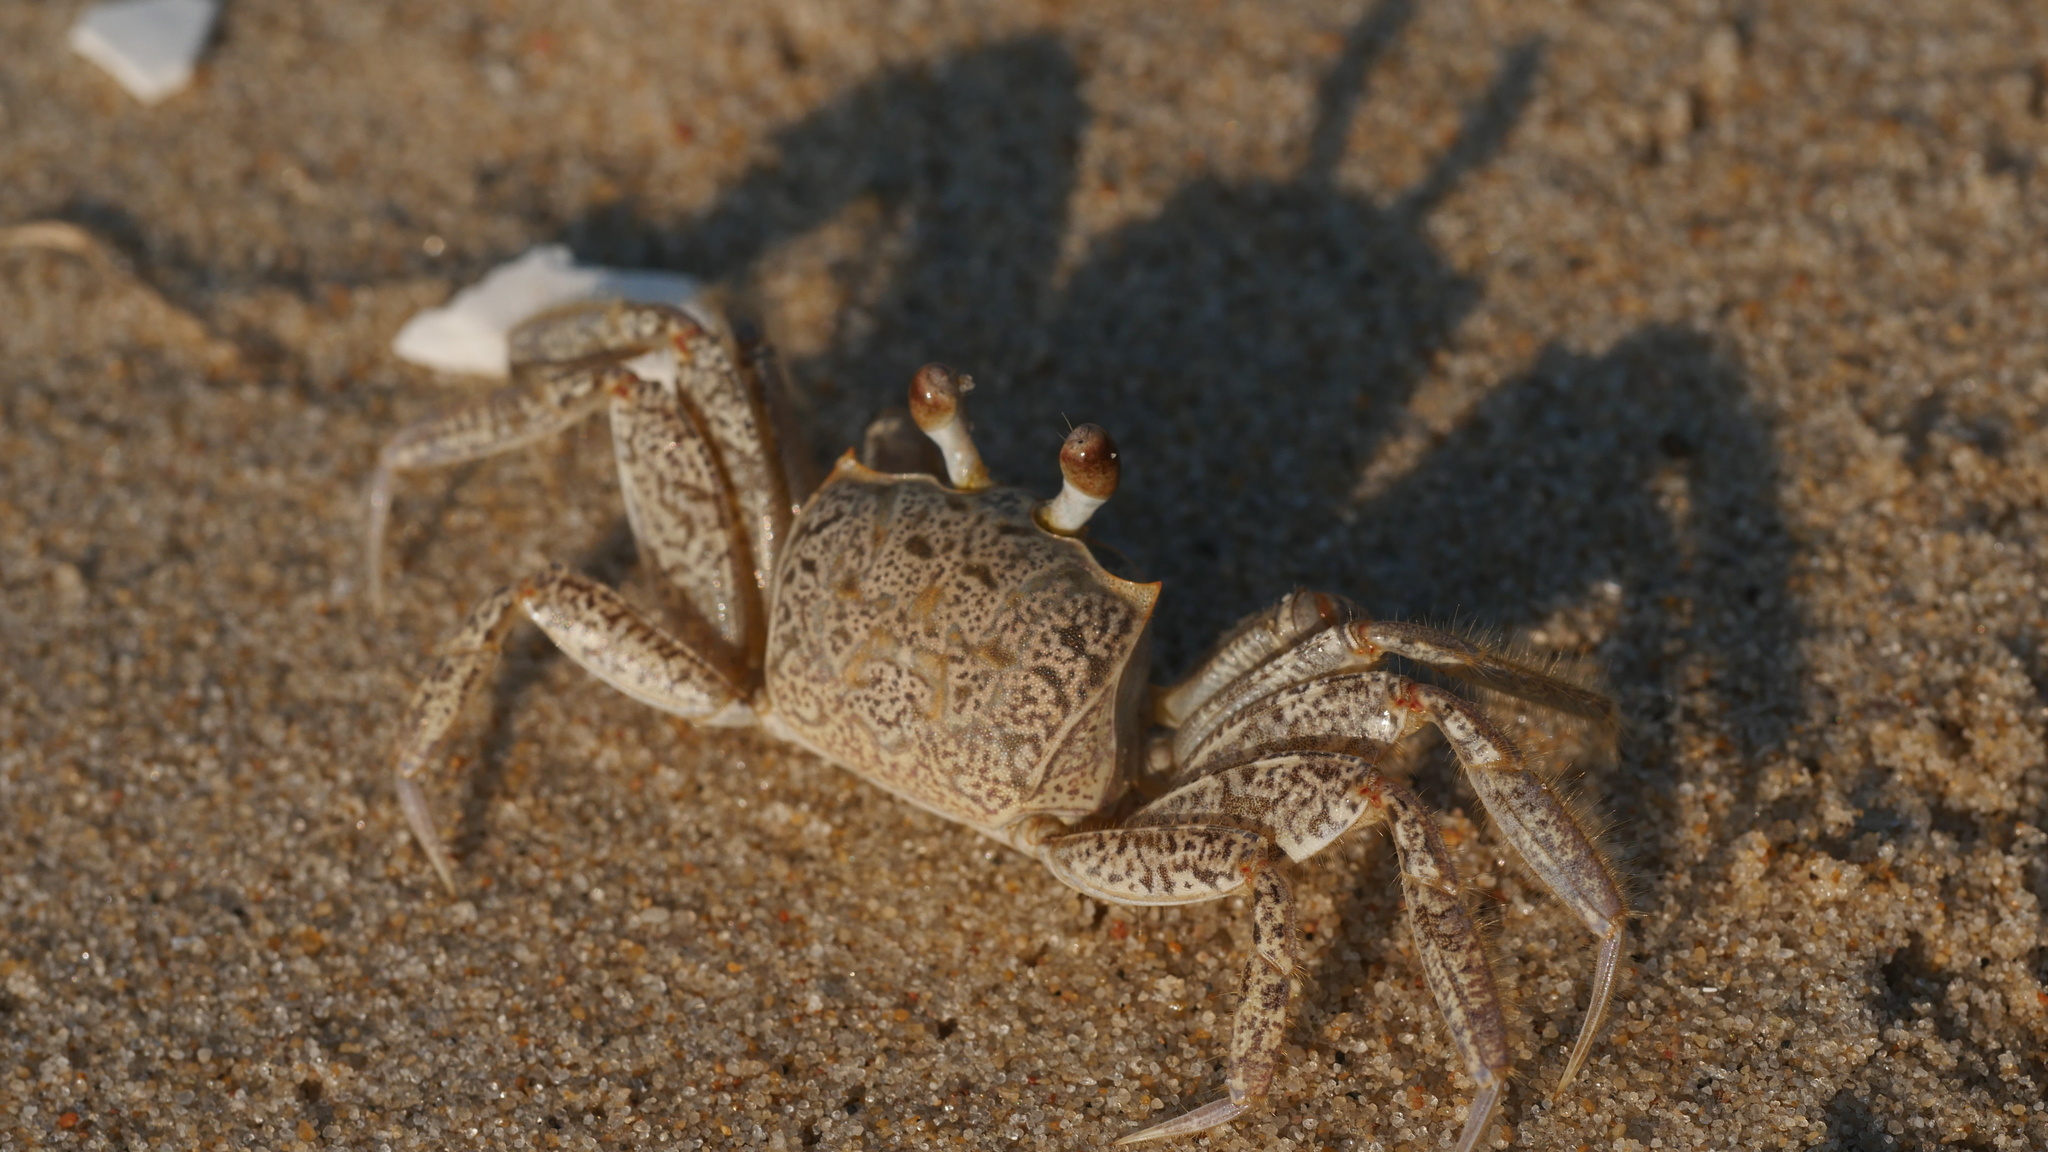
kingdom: Animalia
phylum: Arthropoda
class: Malacostraca
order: Decapoda
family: Ocypodidae
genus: Ocypode
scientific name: Ocypode quadrata
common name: Ghost crab
